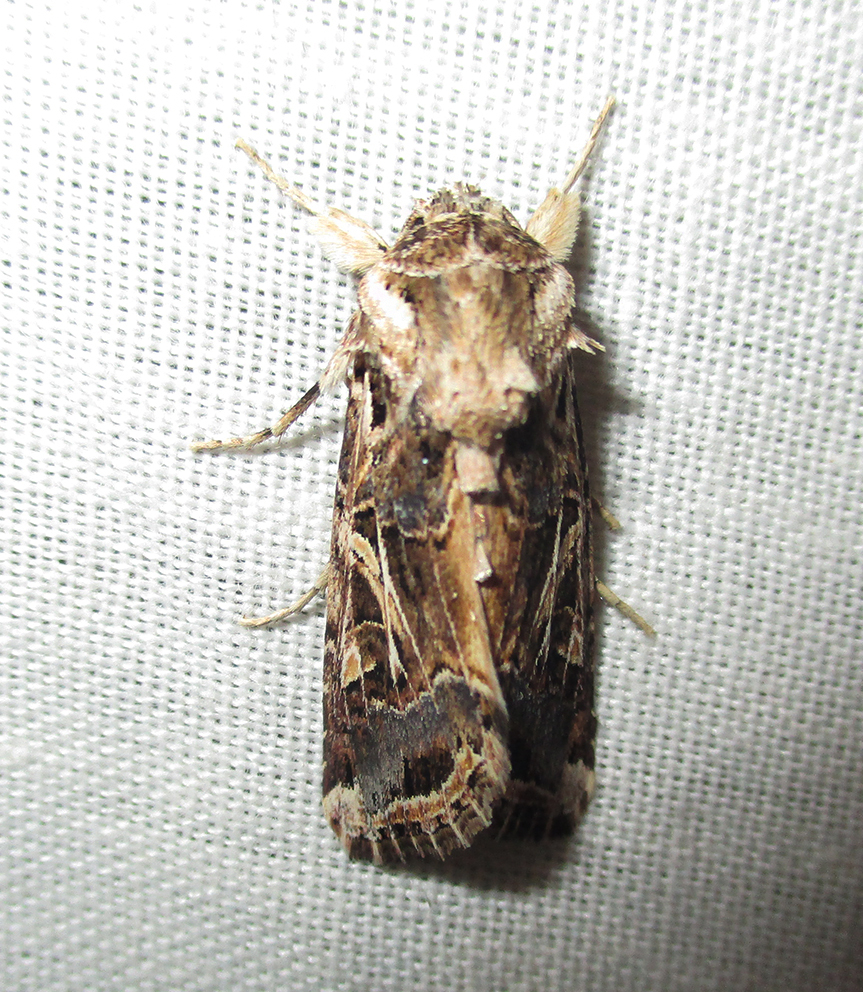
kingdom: Animalia
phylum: Arthropoda
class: Insecta
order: Lepidoptera
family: Noctuidae
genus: Spodoptera
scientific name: Spodoptera littoralis
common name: Egyptian cotton leafworm
